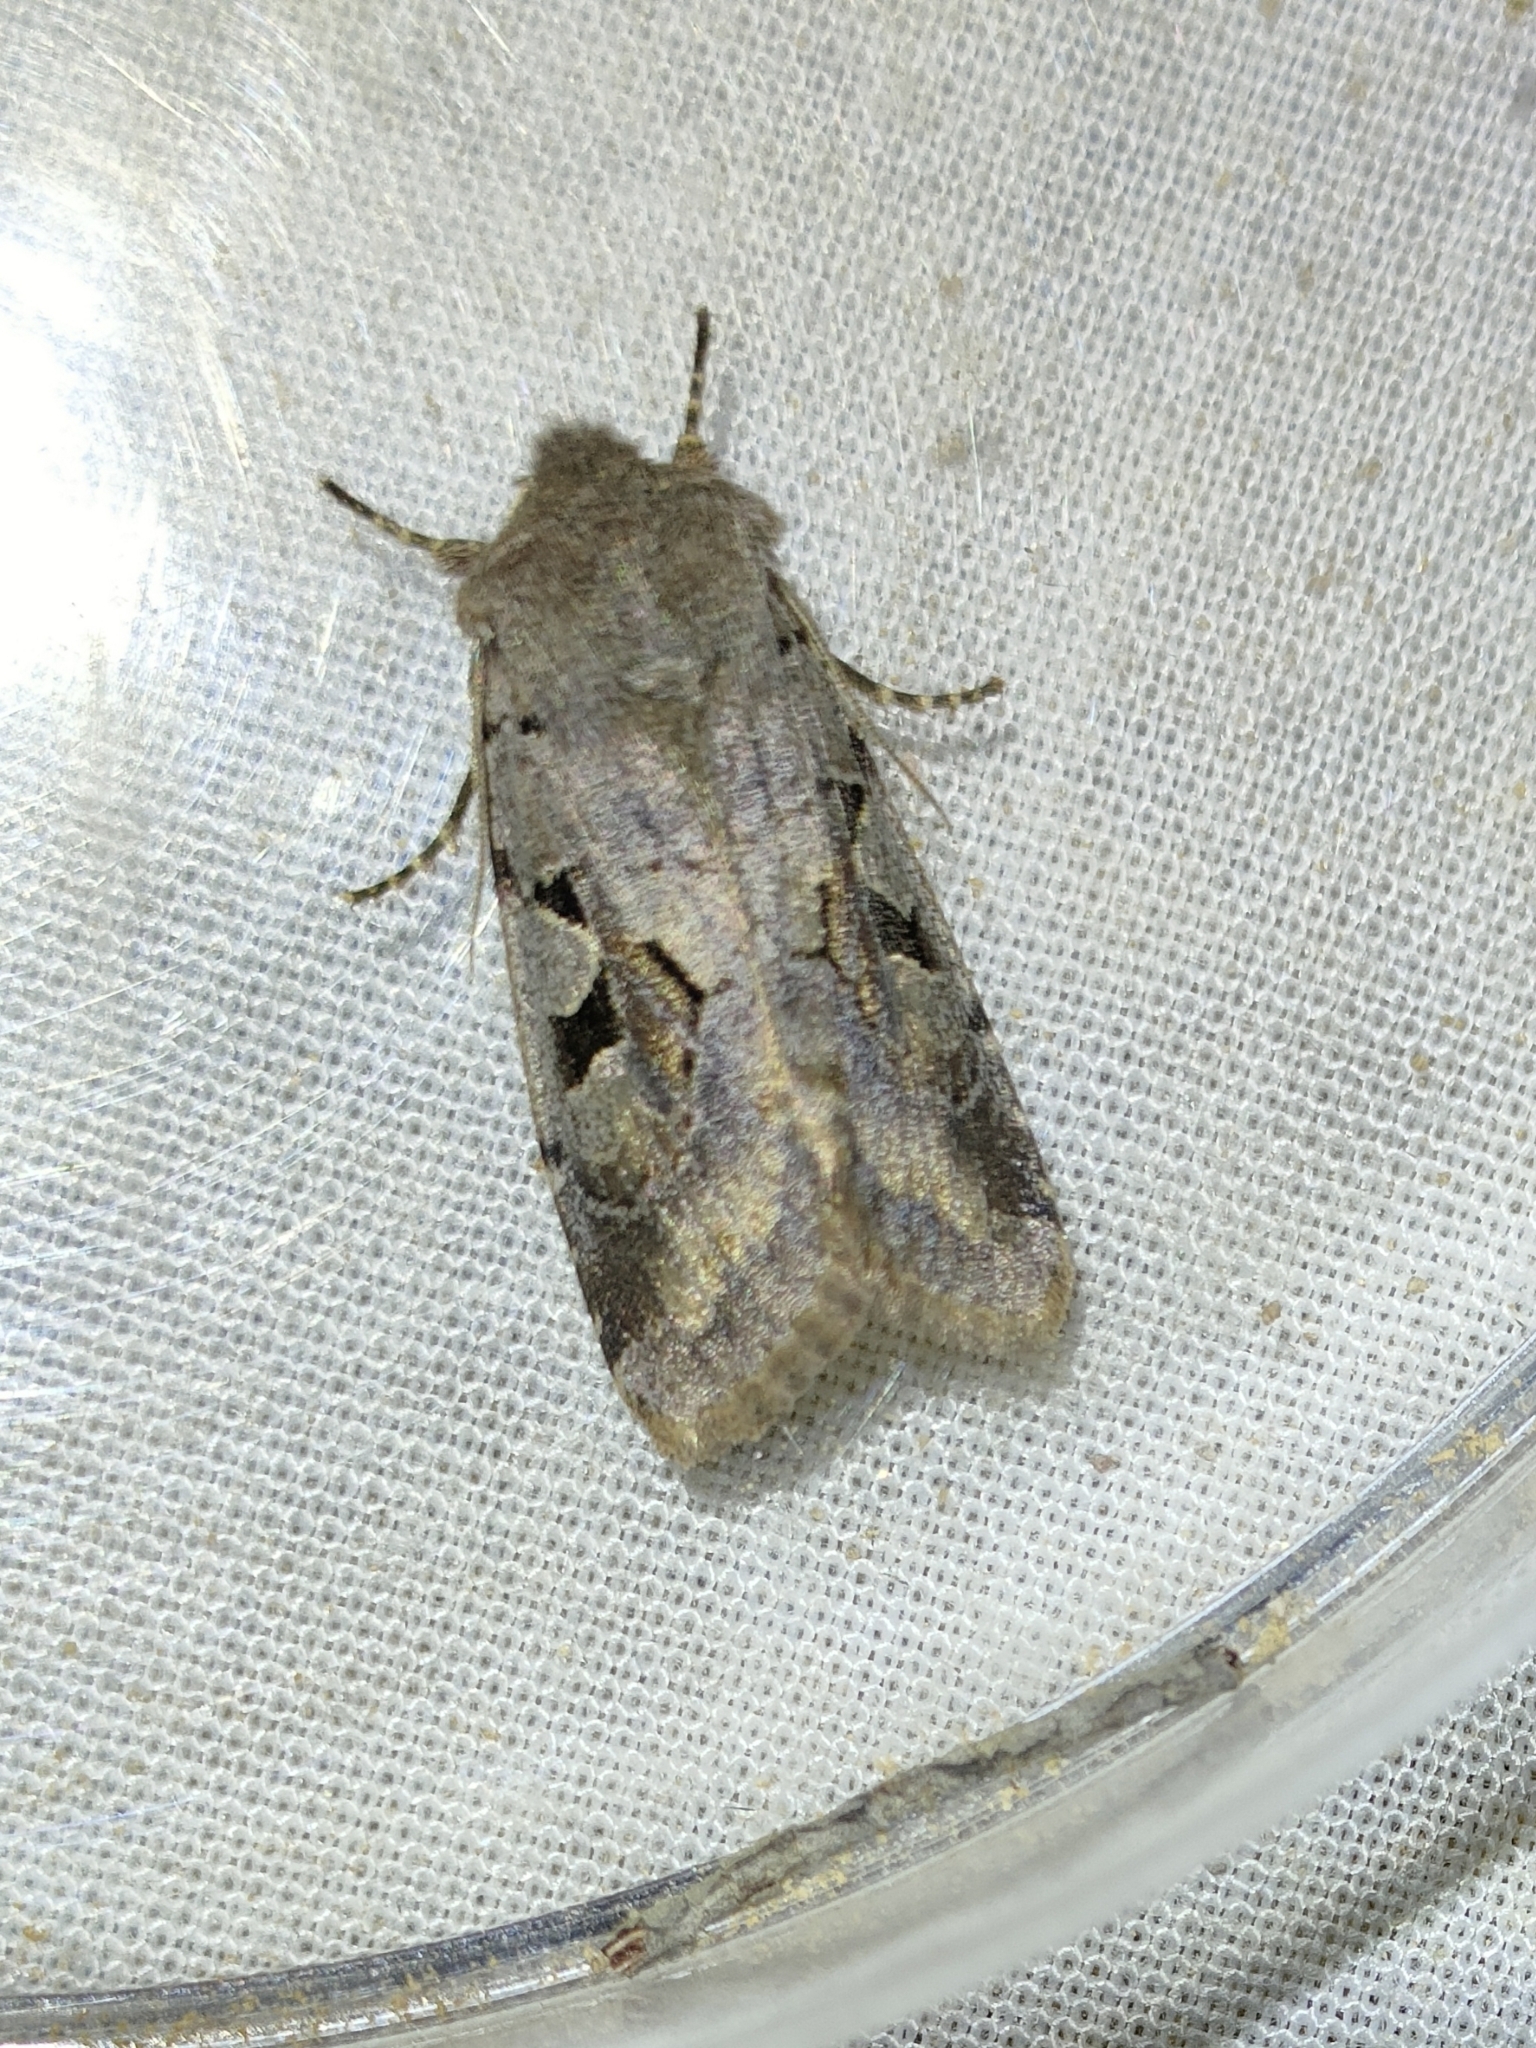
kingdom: Animalia
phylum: Arthropoda
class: Insecta
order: Lepidoptera
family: Noctuidae
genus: Orthosia
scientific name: Orthosia gothica
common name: Hebrew character
